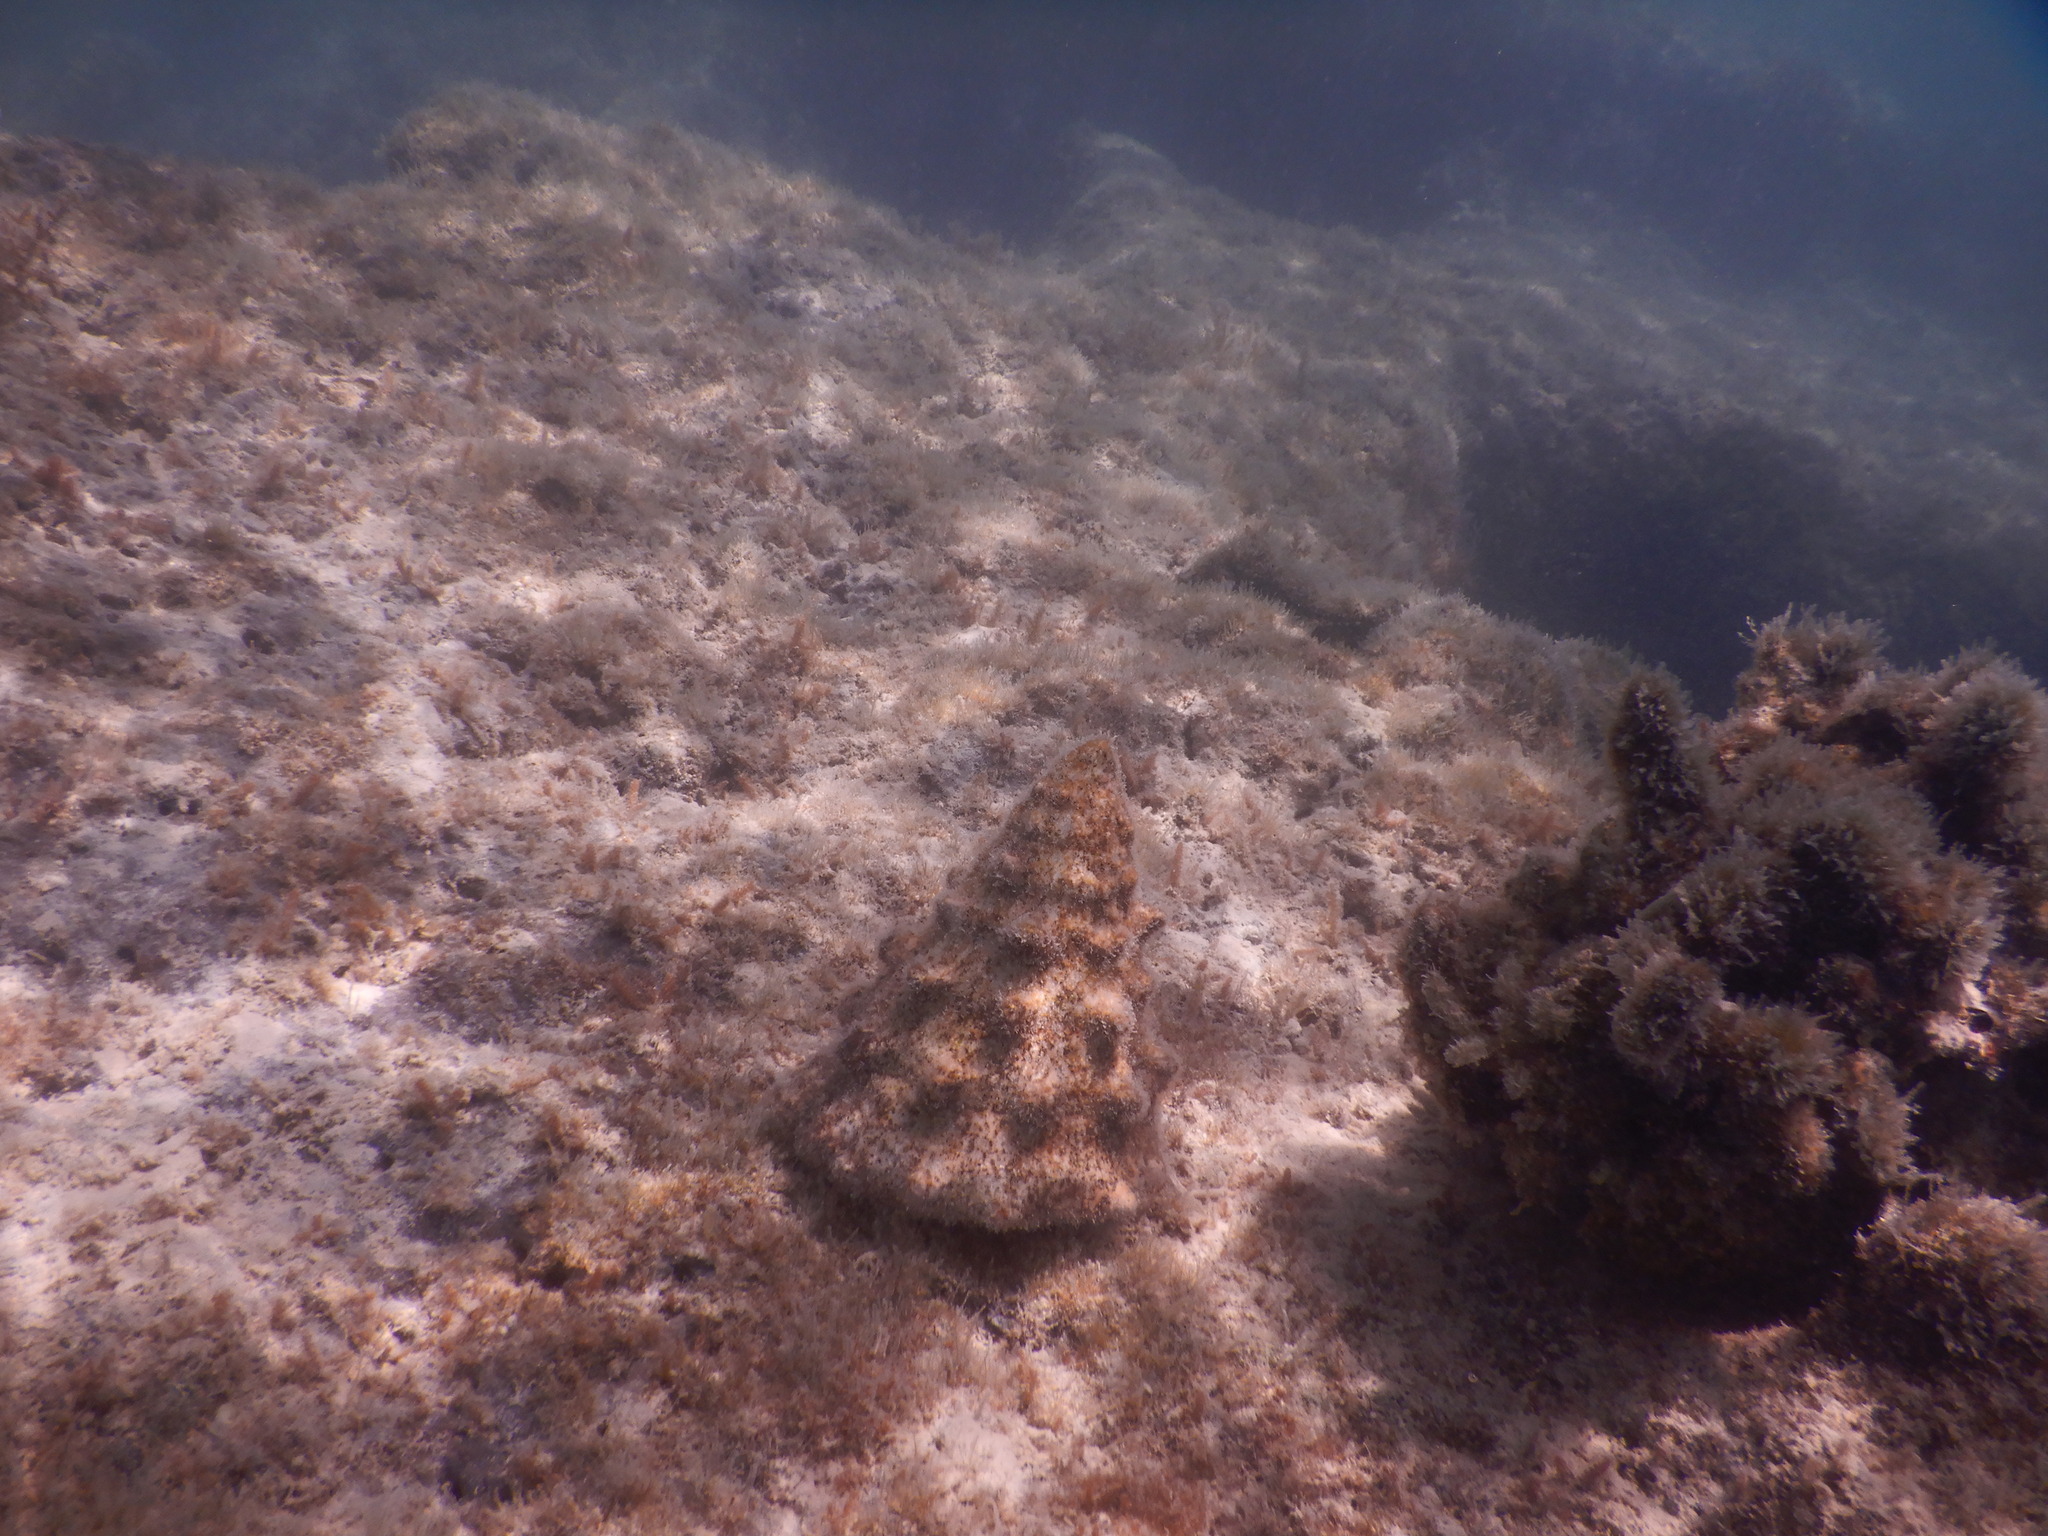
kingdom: Animalia
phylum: Mollusca
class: Gastropoda
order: Trochida
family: Tegulidae
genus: Tectus
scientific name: Tectus dentatus
